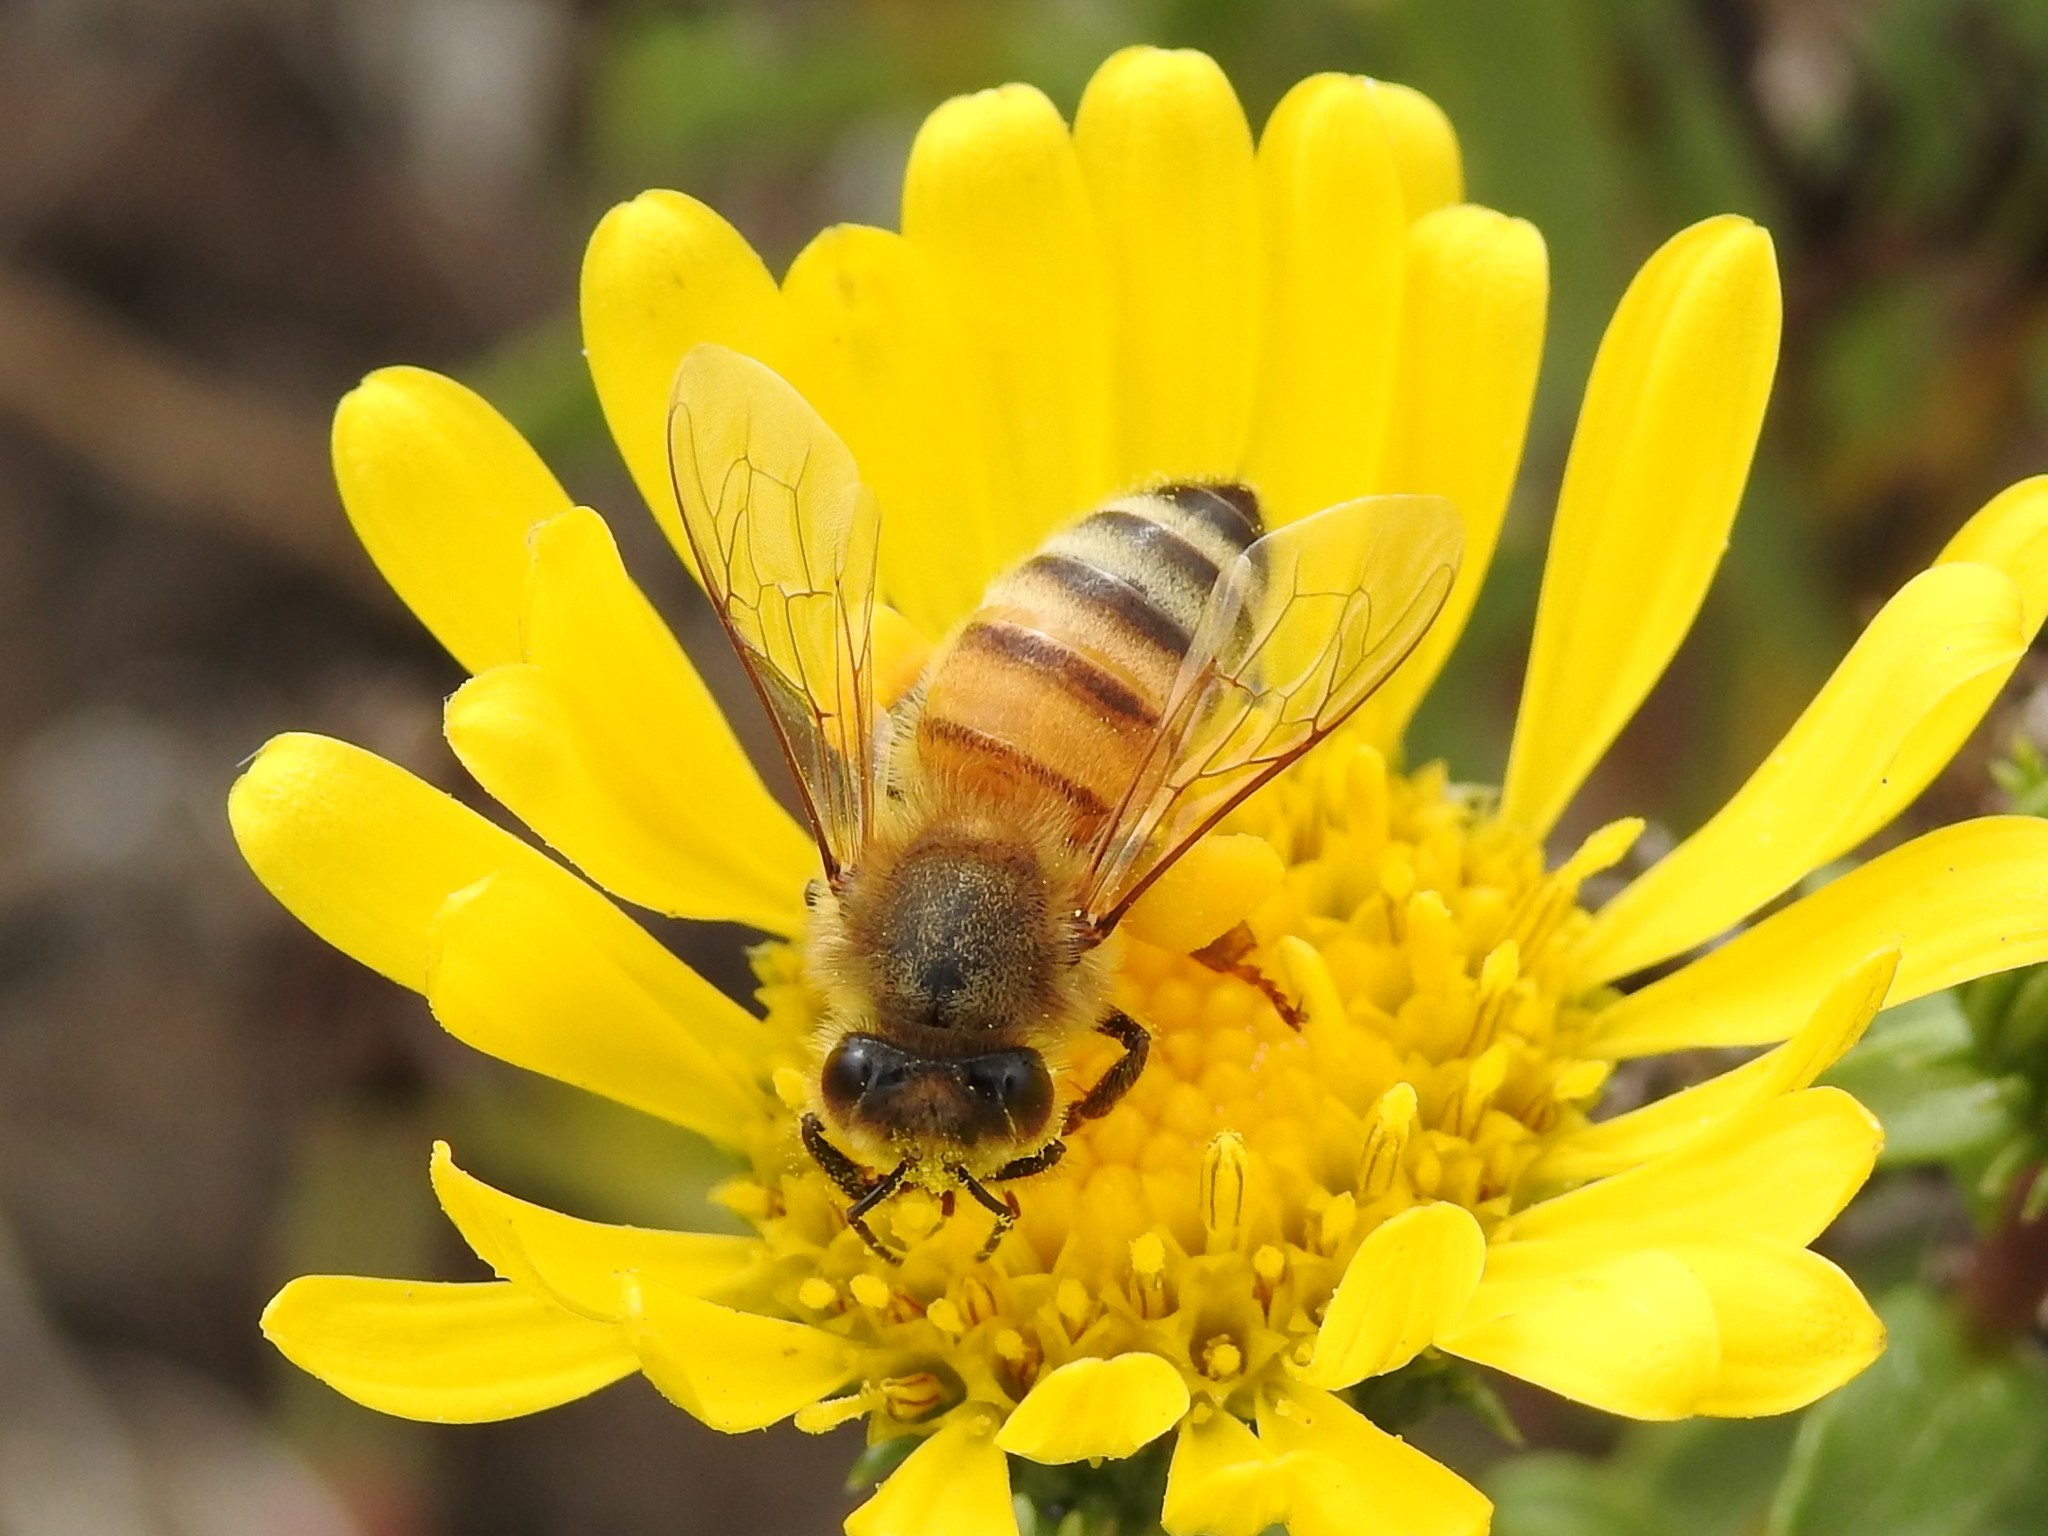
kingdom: Animalia
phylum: Arthropoda
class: Insecta
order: Hymenoptera
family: Apidae
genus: Apis
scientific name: Apis mellifera
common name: Honey bee
